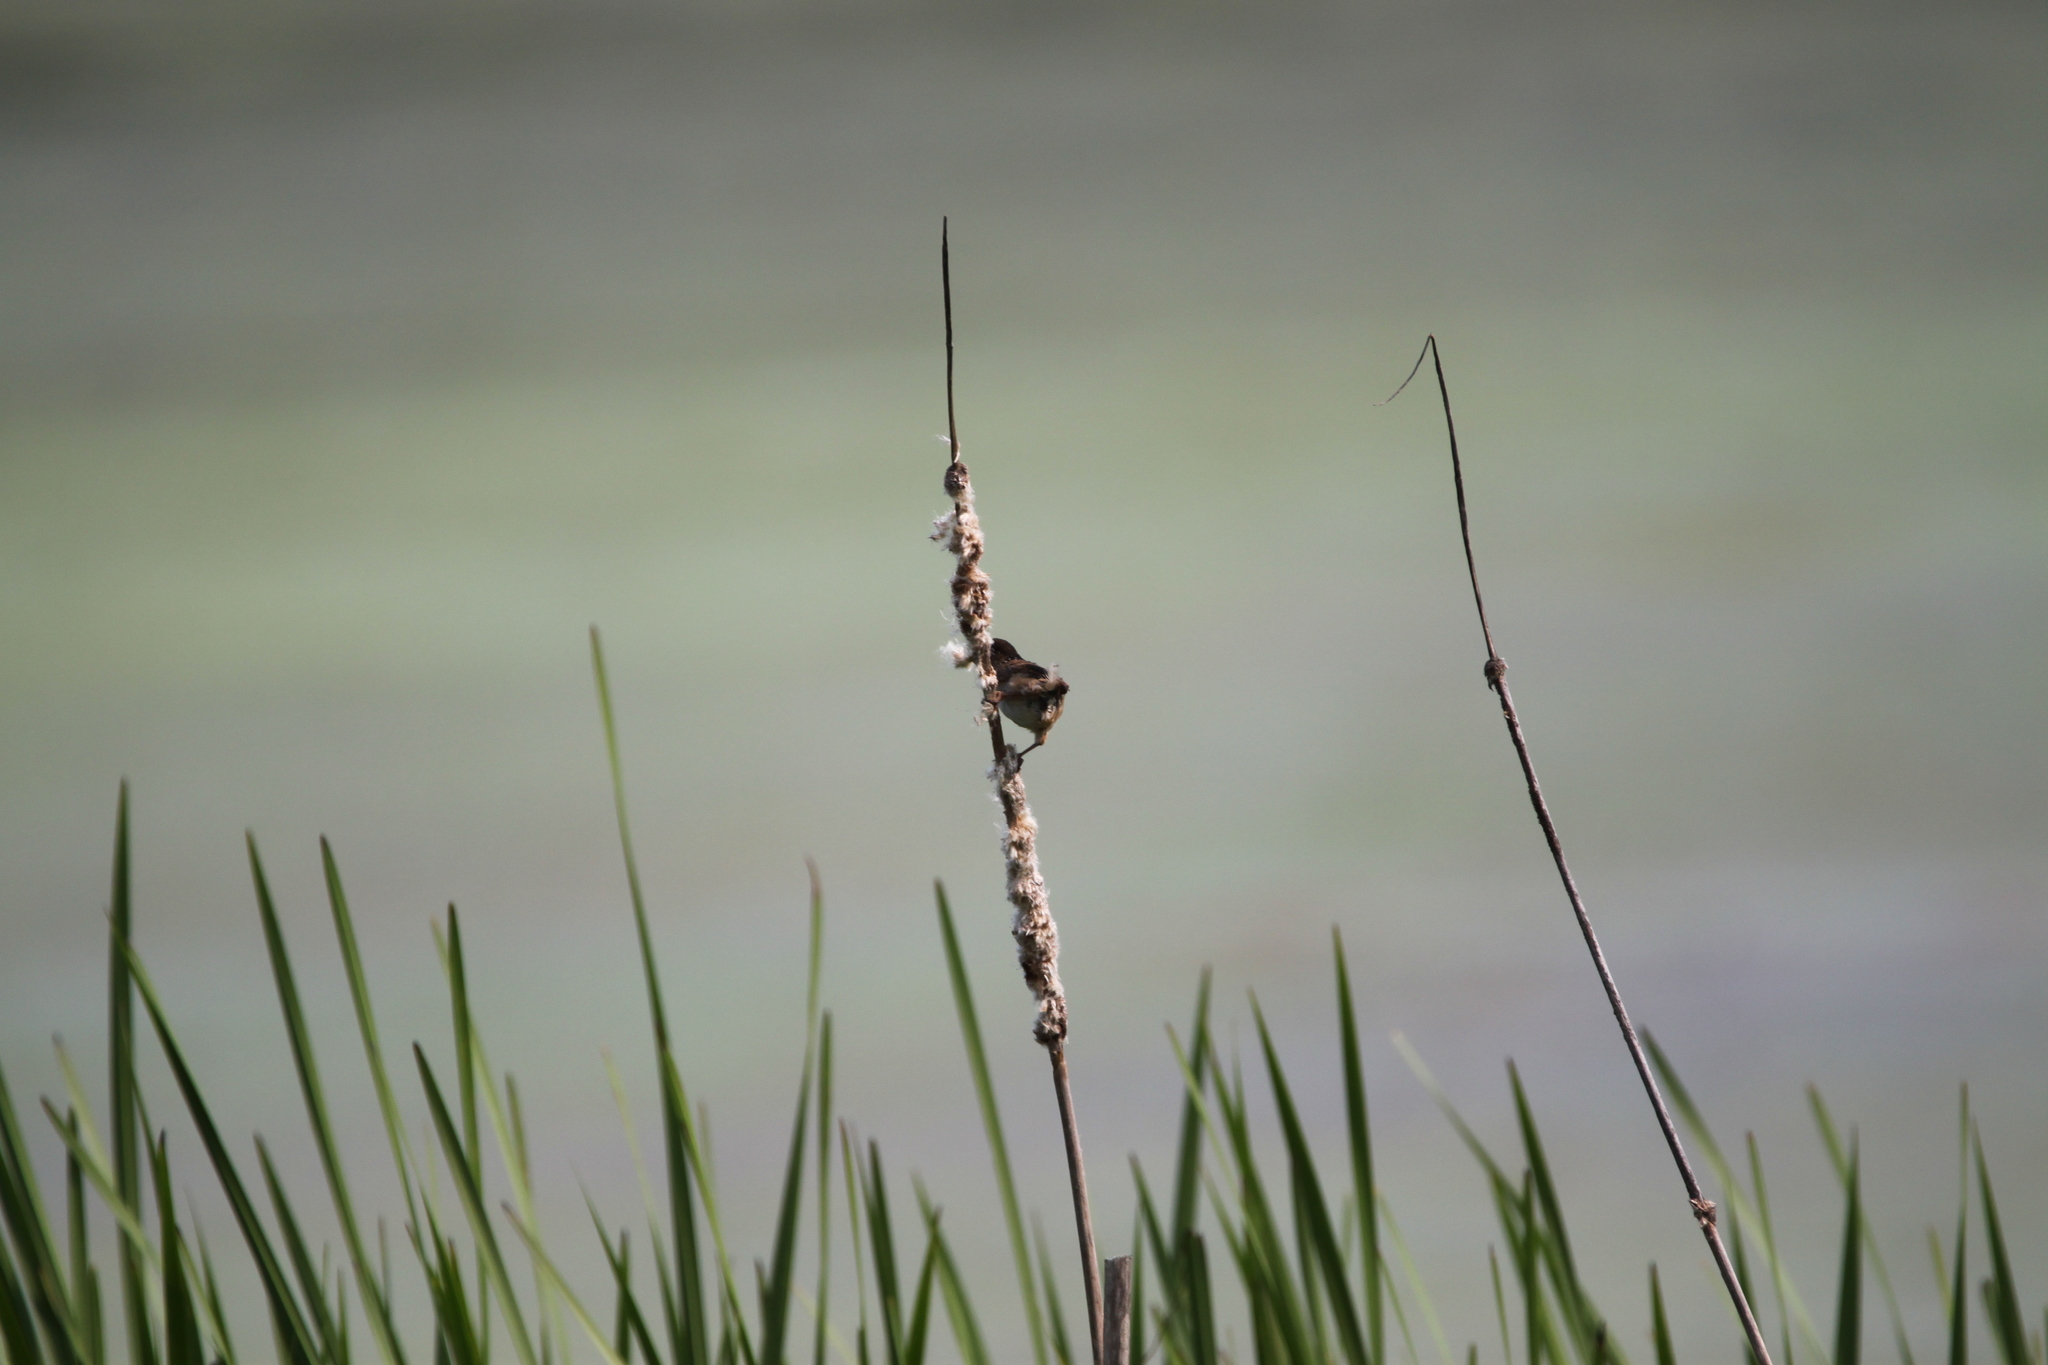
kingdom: Animalia
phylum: Chordata
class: Aves
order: Passeriformes
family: Troglodytidae
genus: Cistothorus
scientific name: Cistothorus palustris
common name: Marsh wren
